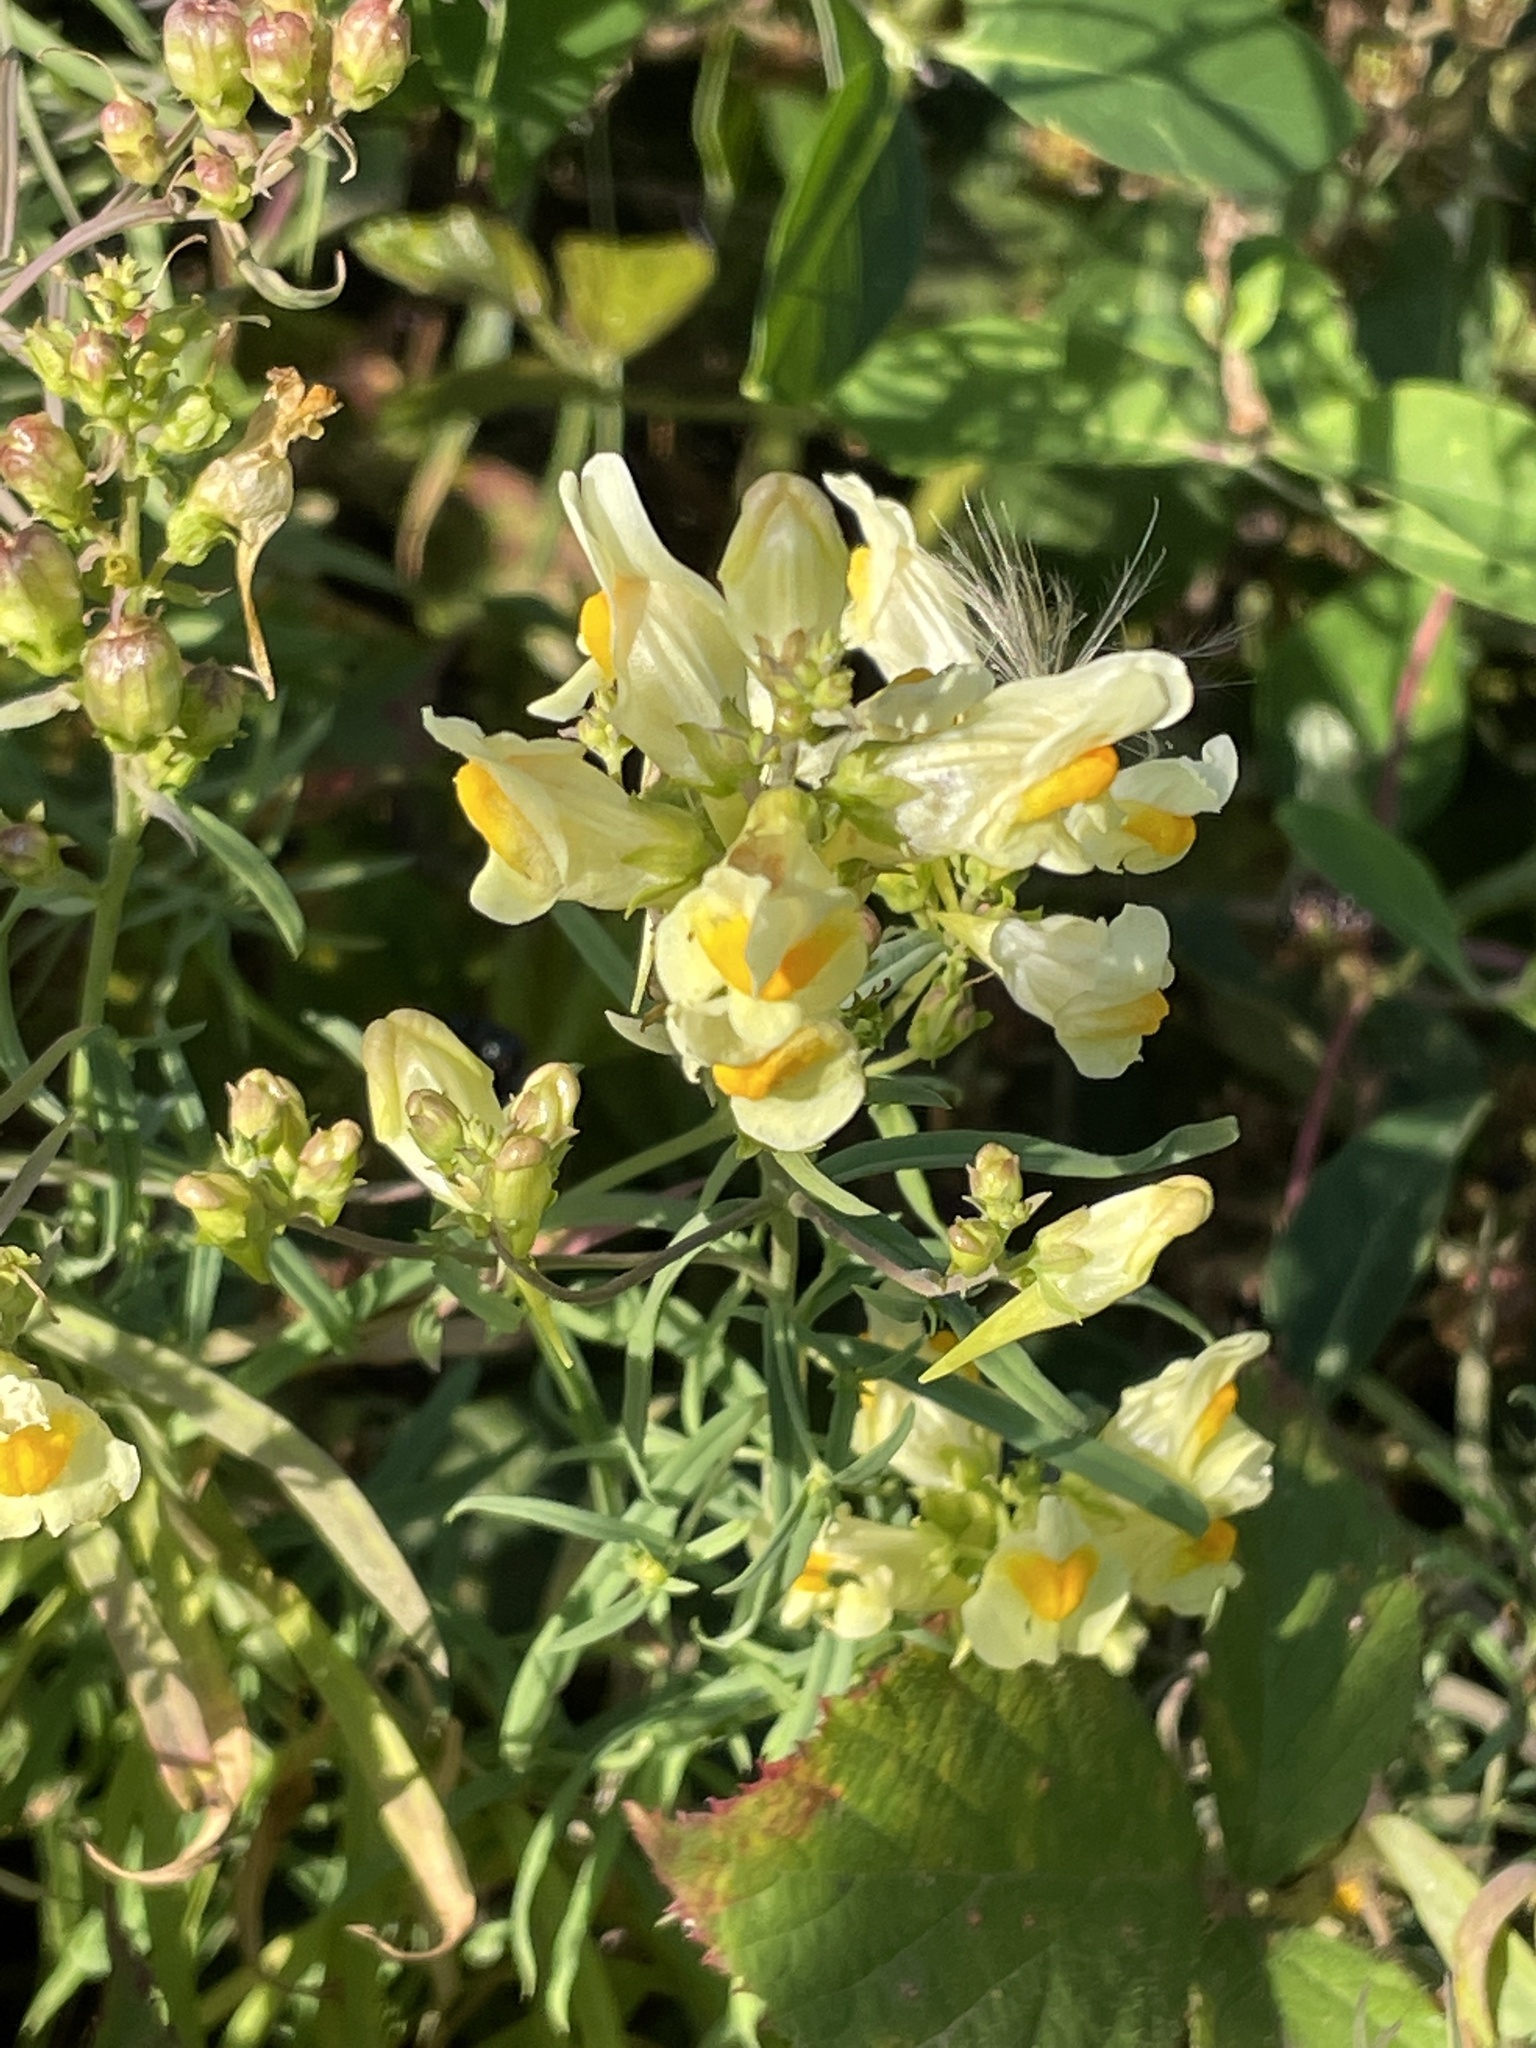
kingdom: Plantae
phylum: Tracheophyta
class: Magnoliopsida
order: Lamiales
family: Plantaginaceae
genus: Linaria
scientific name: Linaria vulgaris
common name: Butter and eggs
